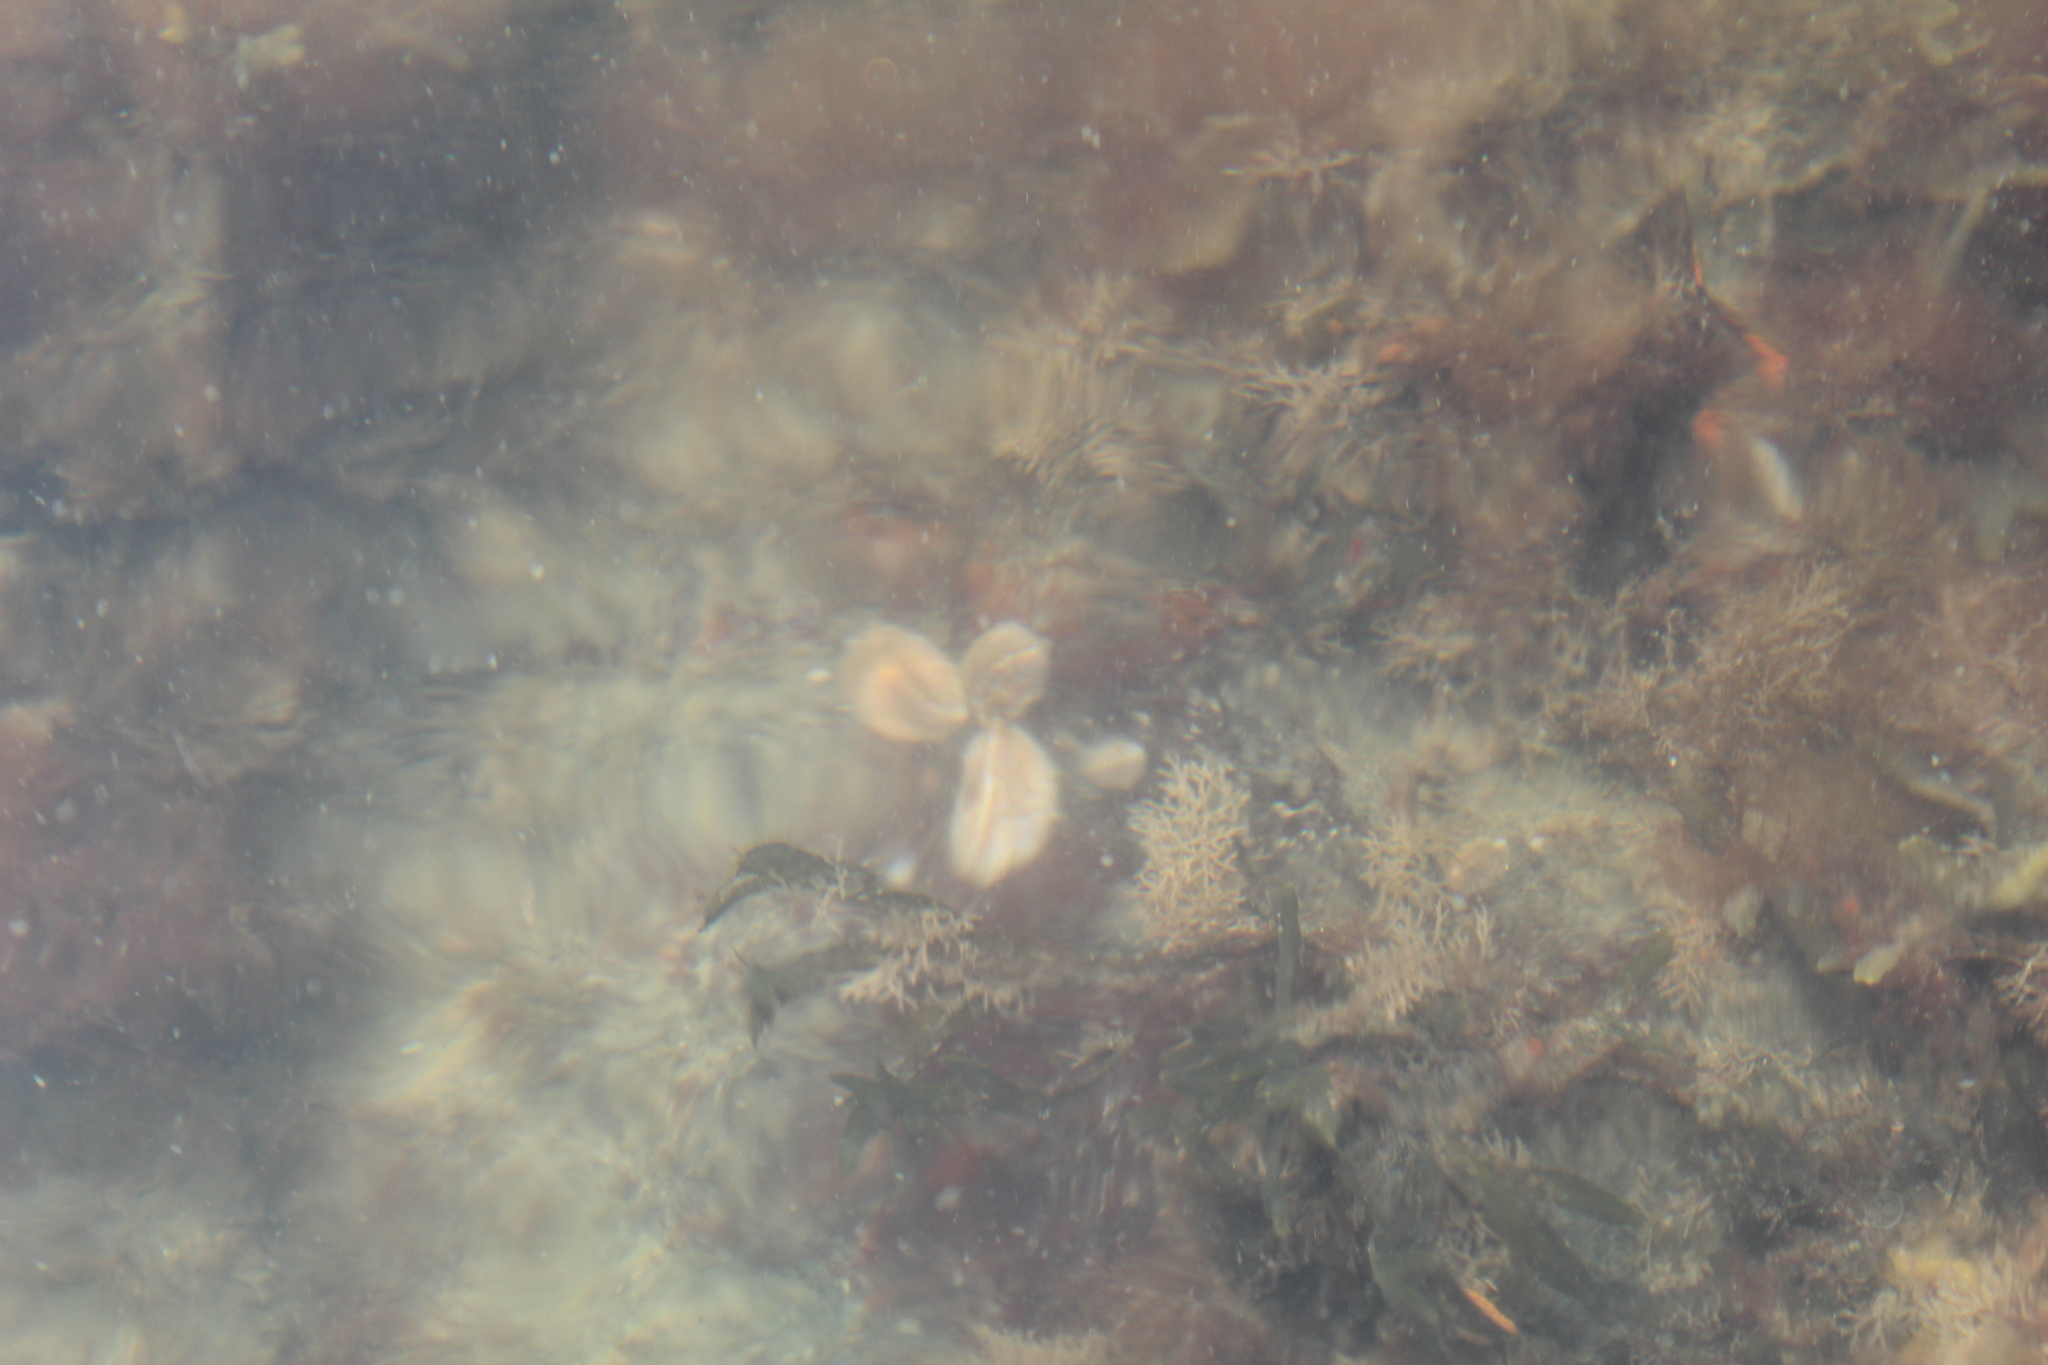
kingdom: Animalia
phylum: Mollusca
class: Gastropoda
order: Littorinimorpha
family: Calyptraeidae
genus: Crepidula
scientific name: Crepidula fornicata
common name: Slipper limpet
